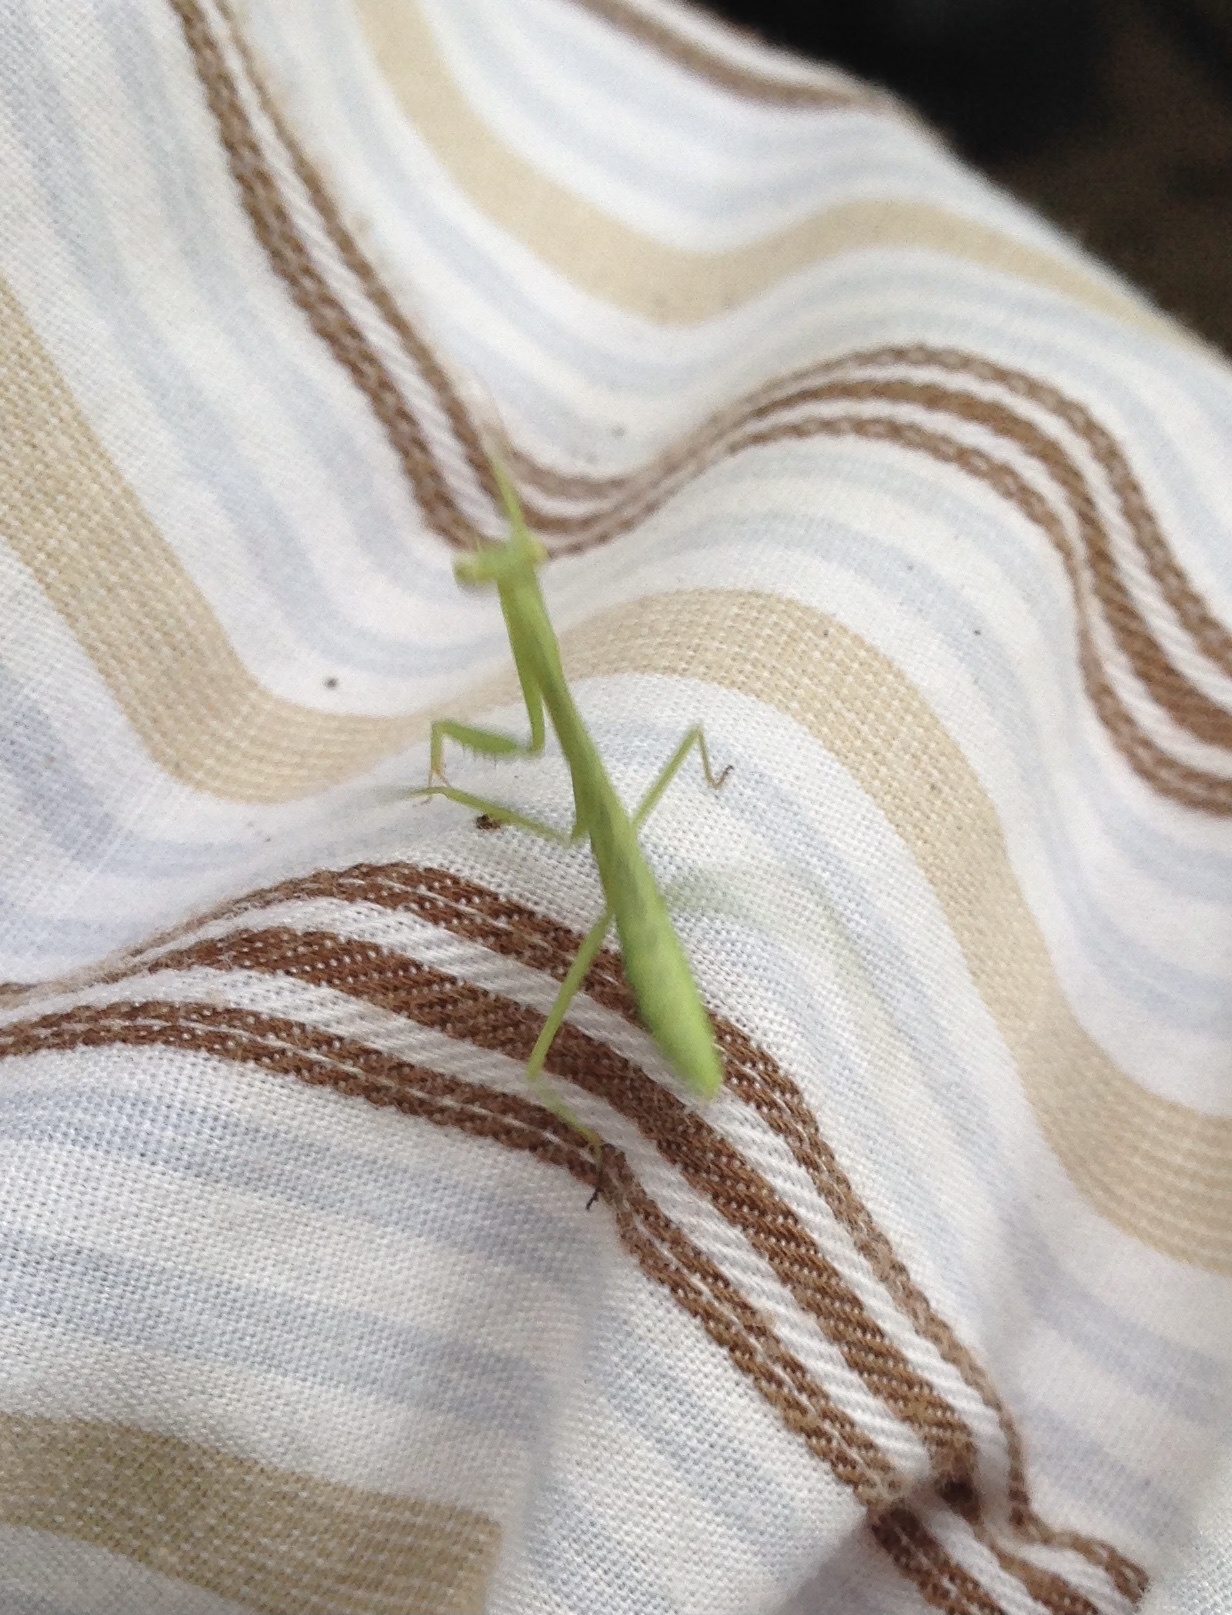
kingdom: Animalia
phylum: Arthropoda
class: Insecta
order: Mantodea
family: Mantidae
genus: Stagmomantis
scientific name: Stagmomantis carolina
